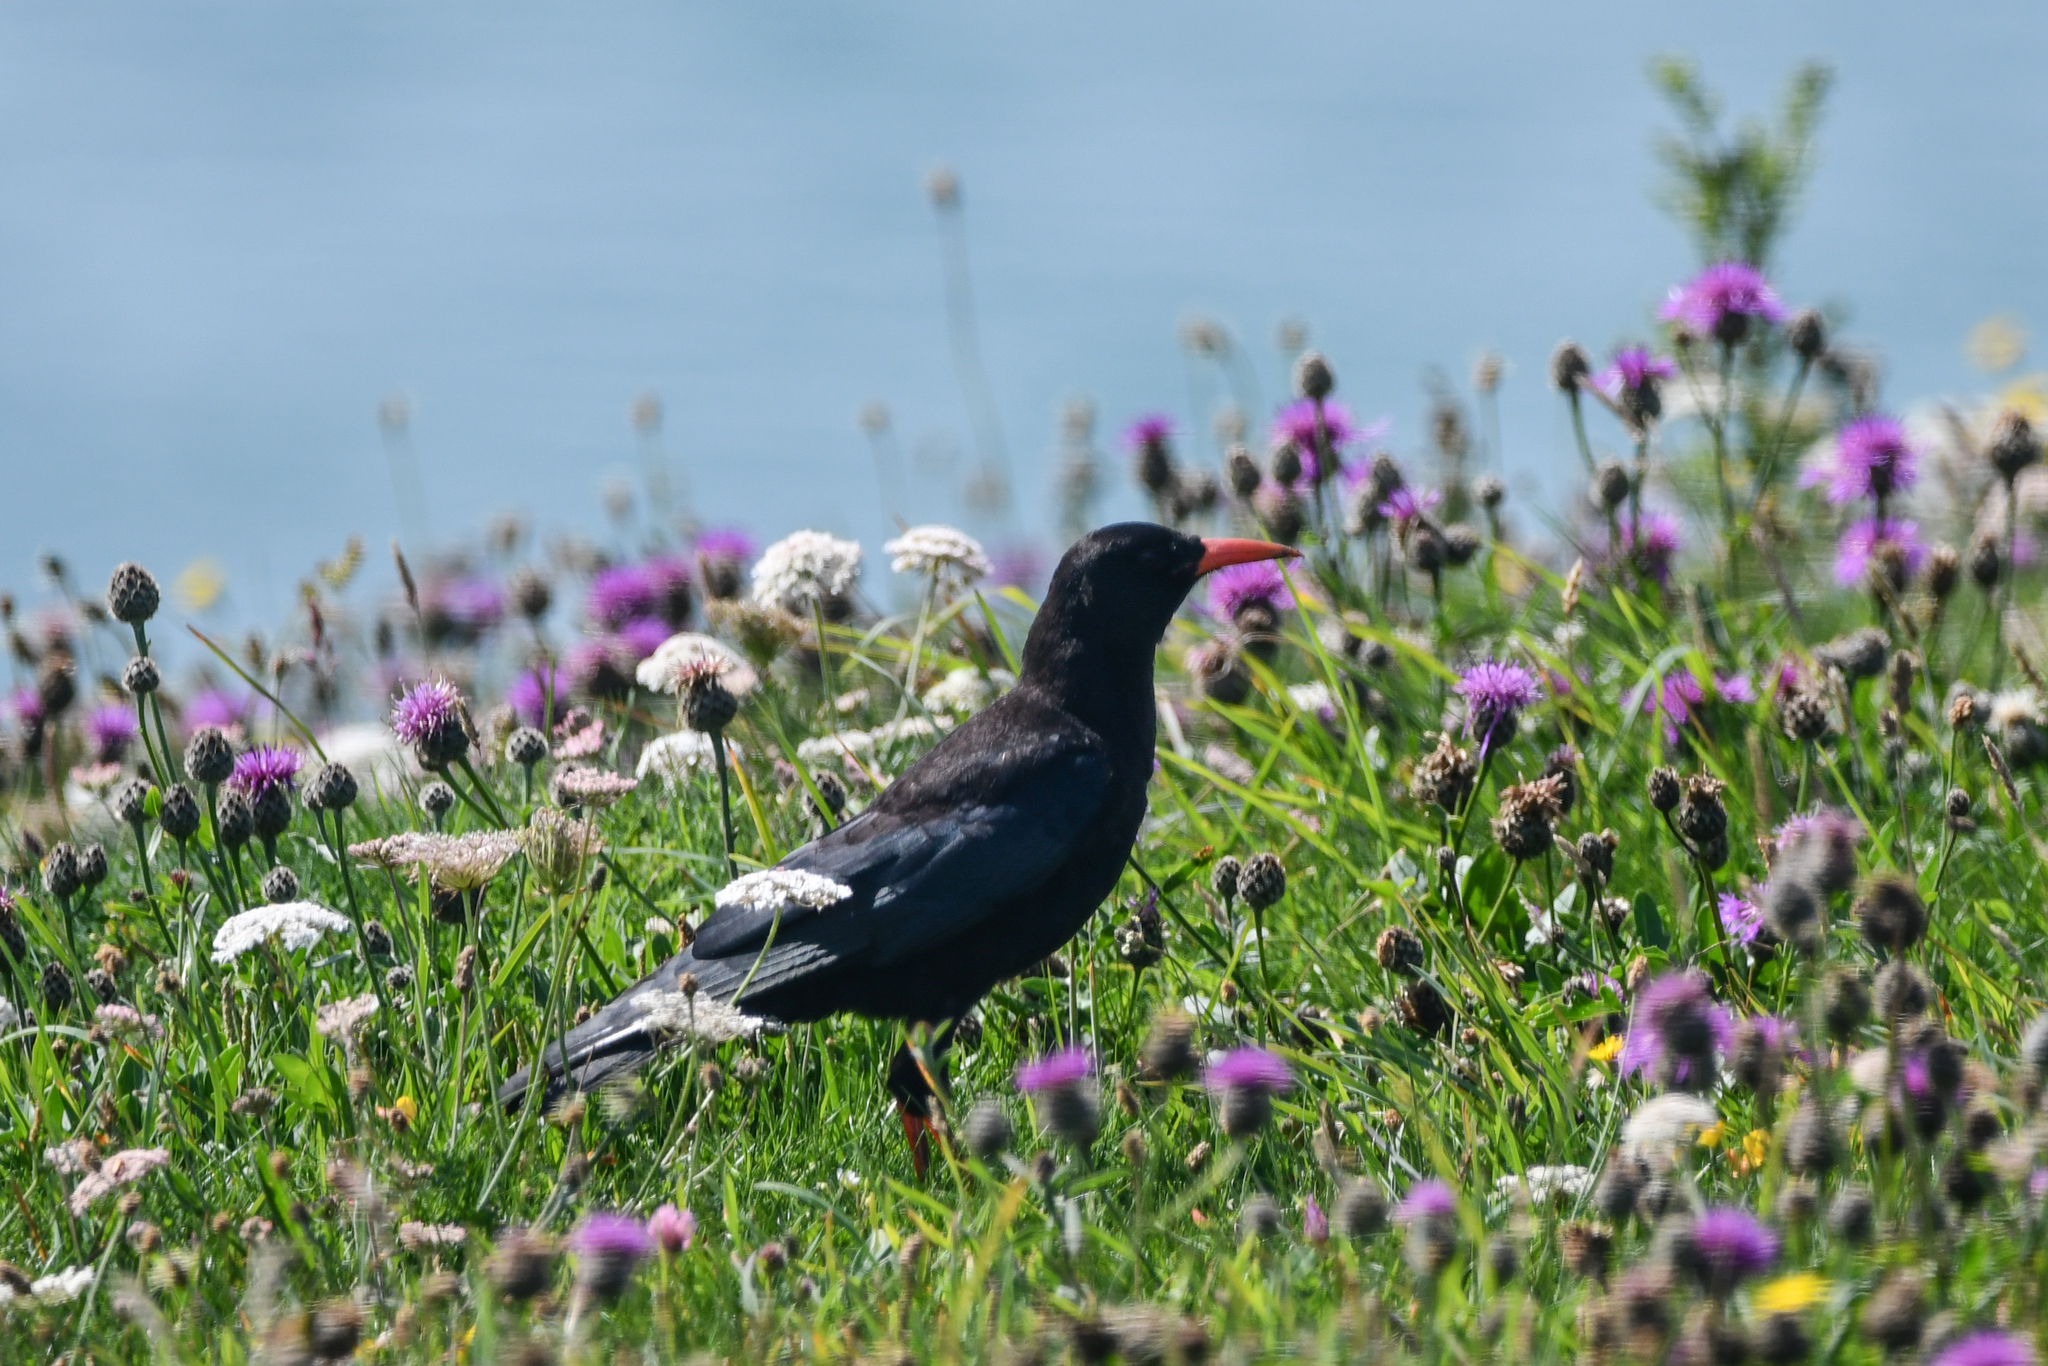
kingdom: Animalia
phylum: Chordata
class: Aves
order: Passeriformes
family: Corvidae
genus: Pyrrhocorax
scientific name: Pyrrhocorax pyrrhocorax
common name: Red-billed chough
